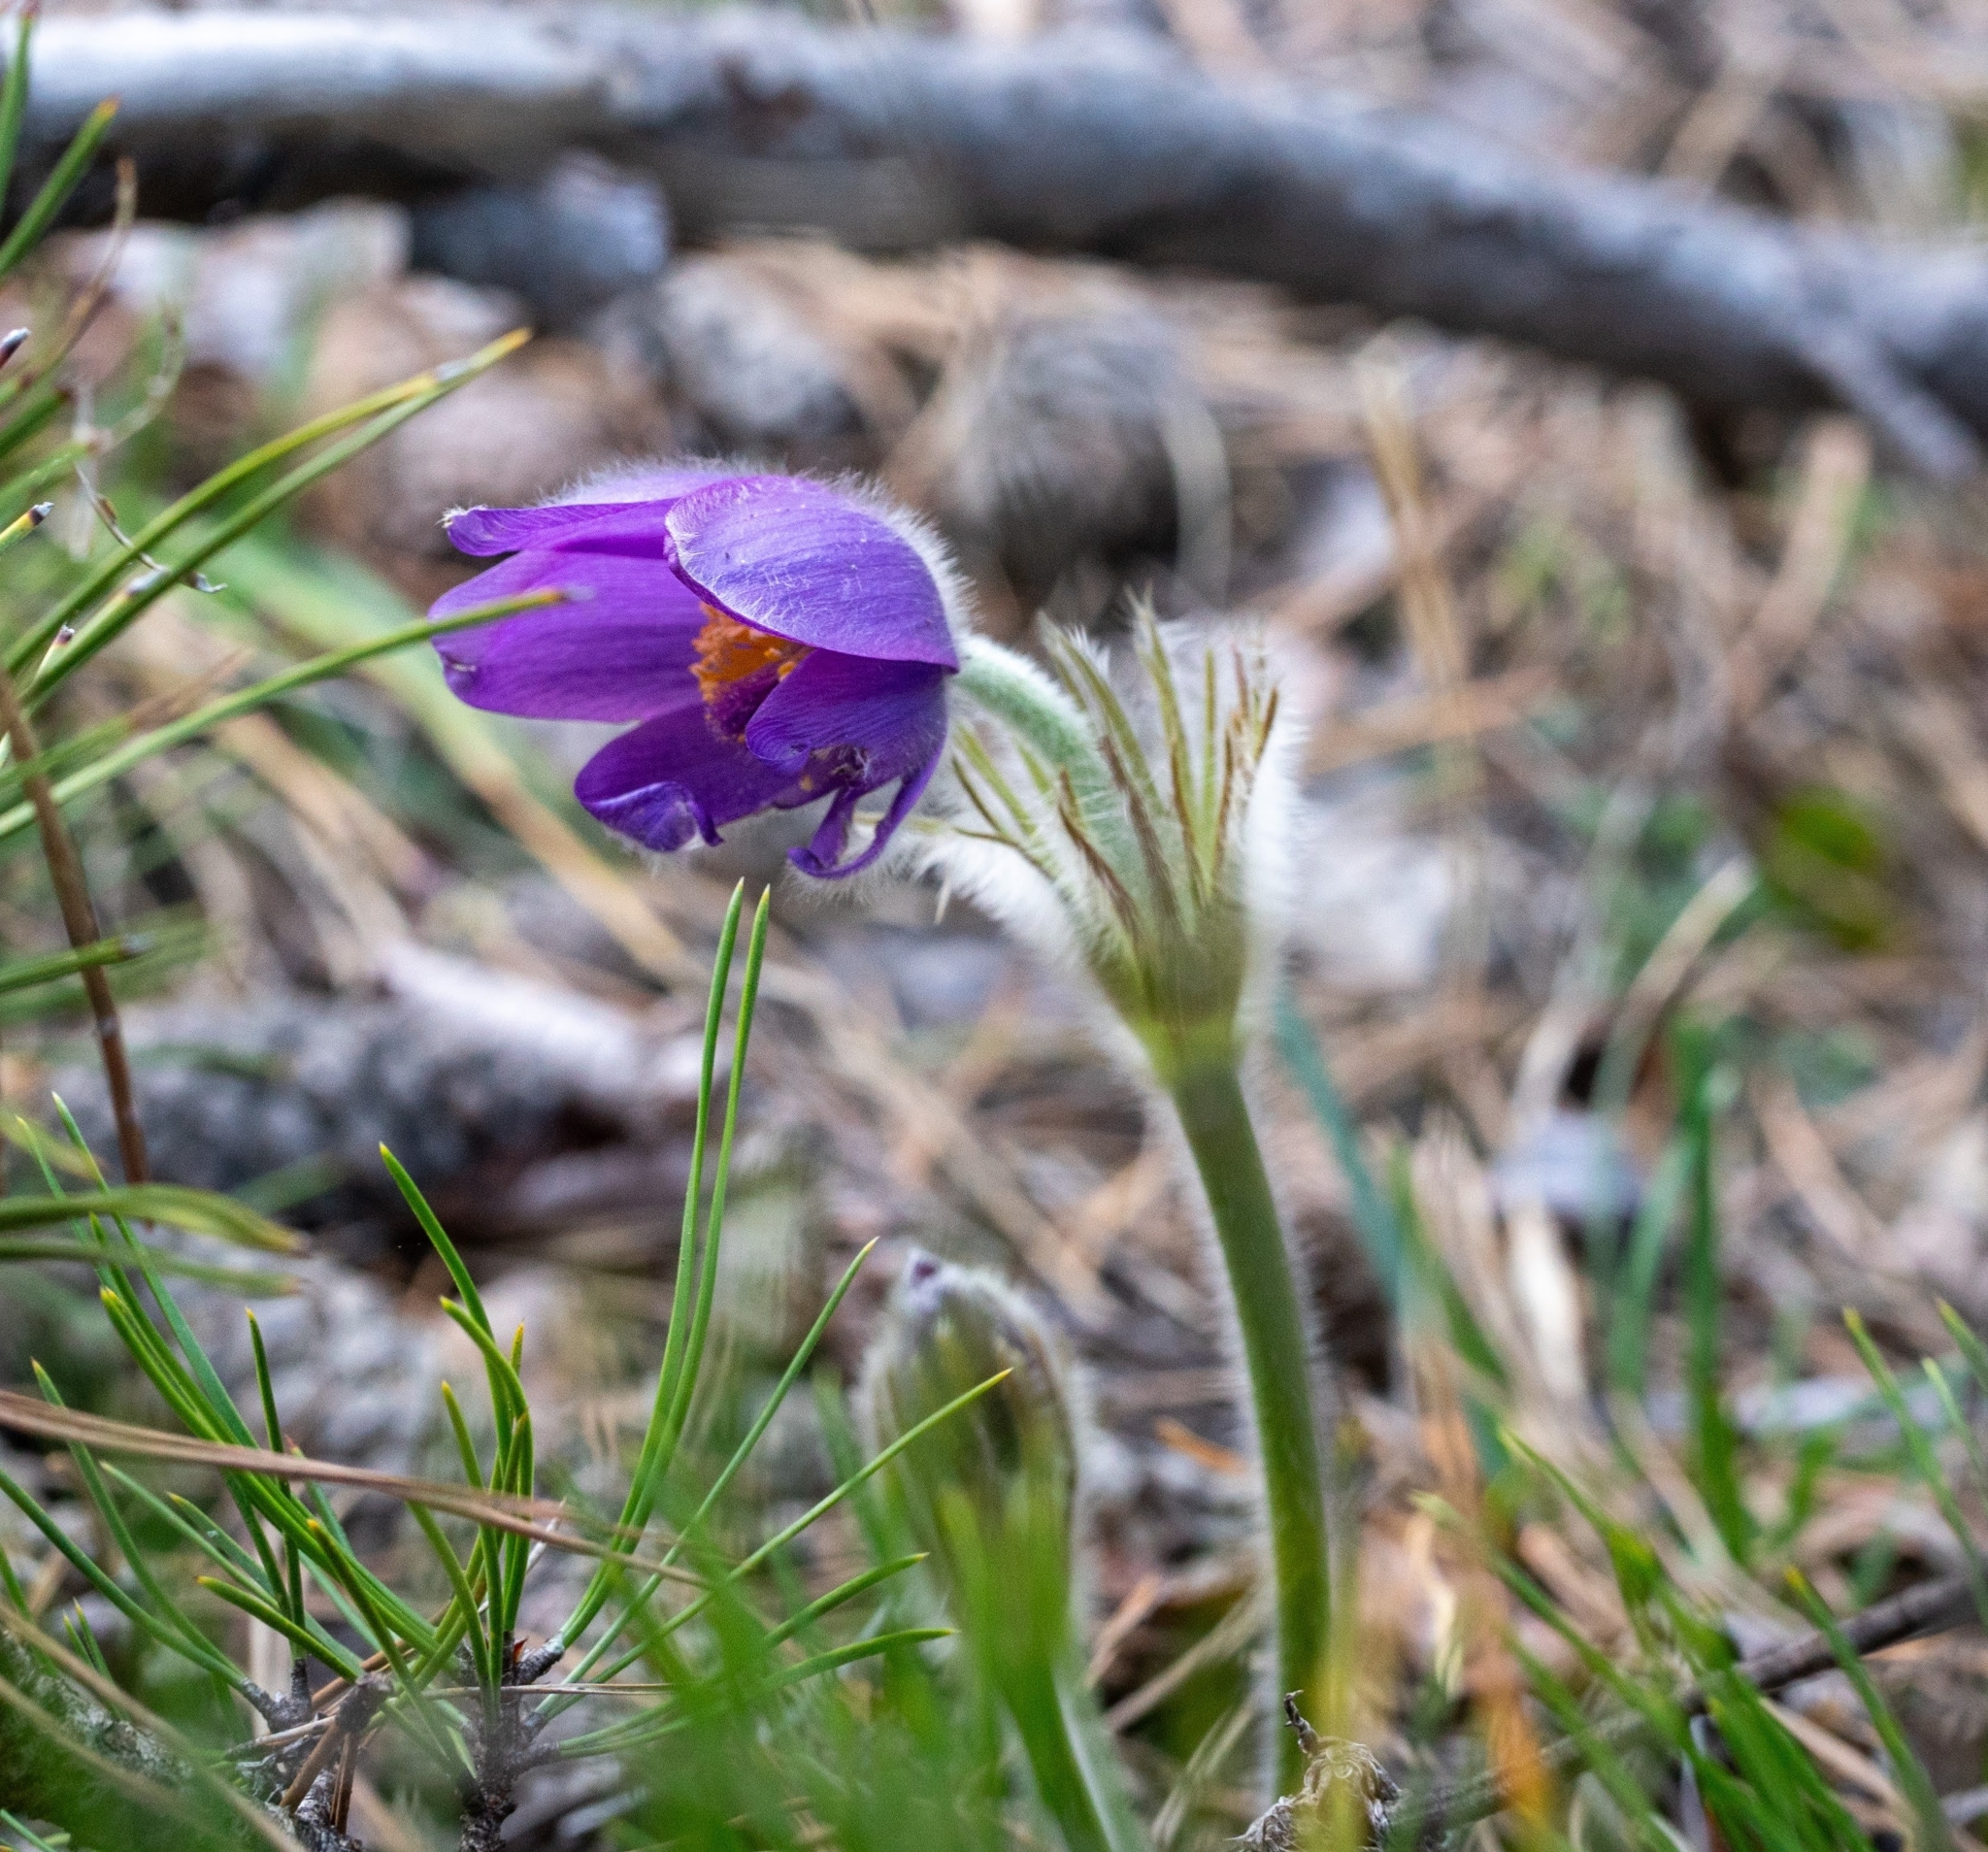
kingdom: Plantae
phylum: Tracheophyta
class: Magnoliopsida
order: Ranunculales
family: Ranunculaceae
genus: Pulsatilla
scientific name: Pulsatilla grandis
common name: Greater pasque flower
